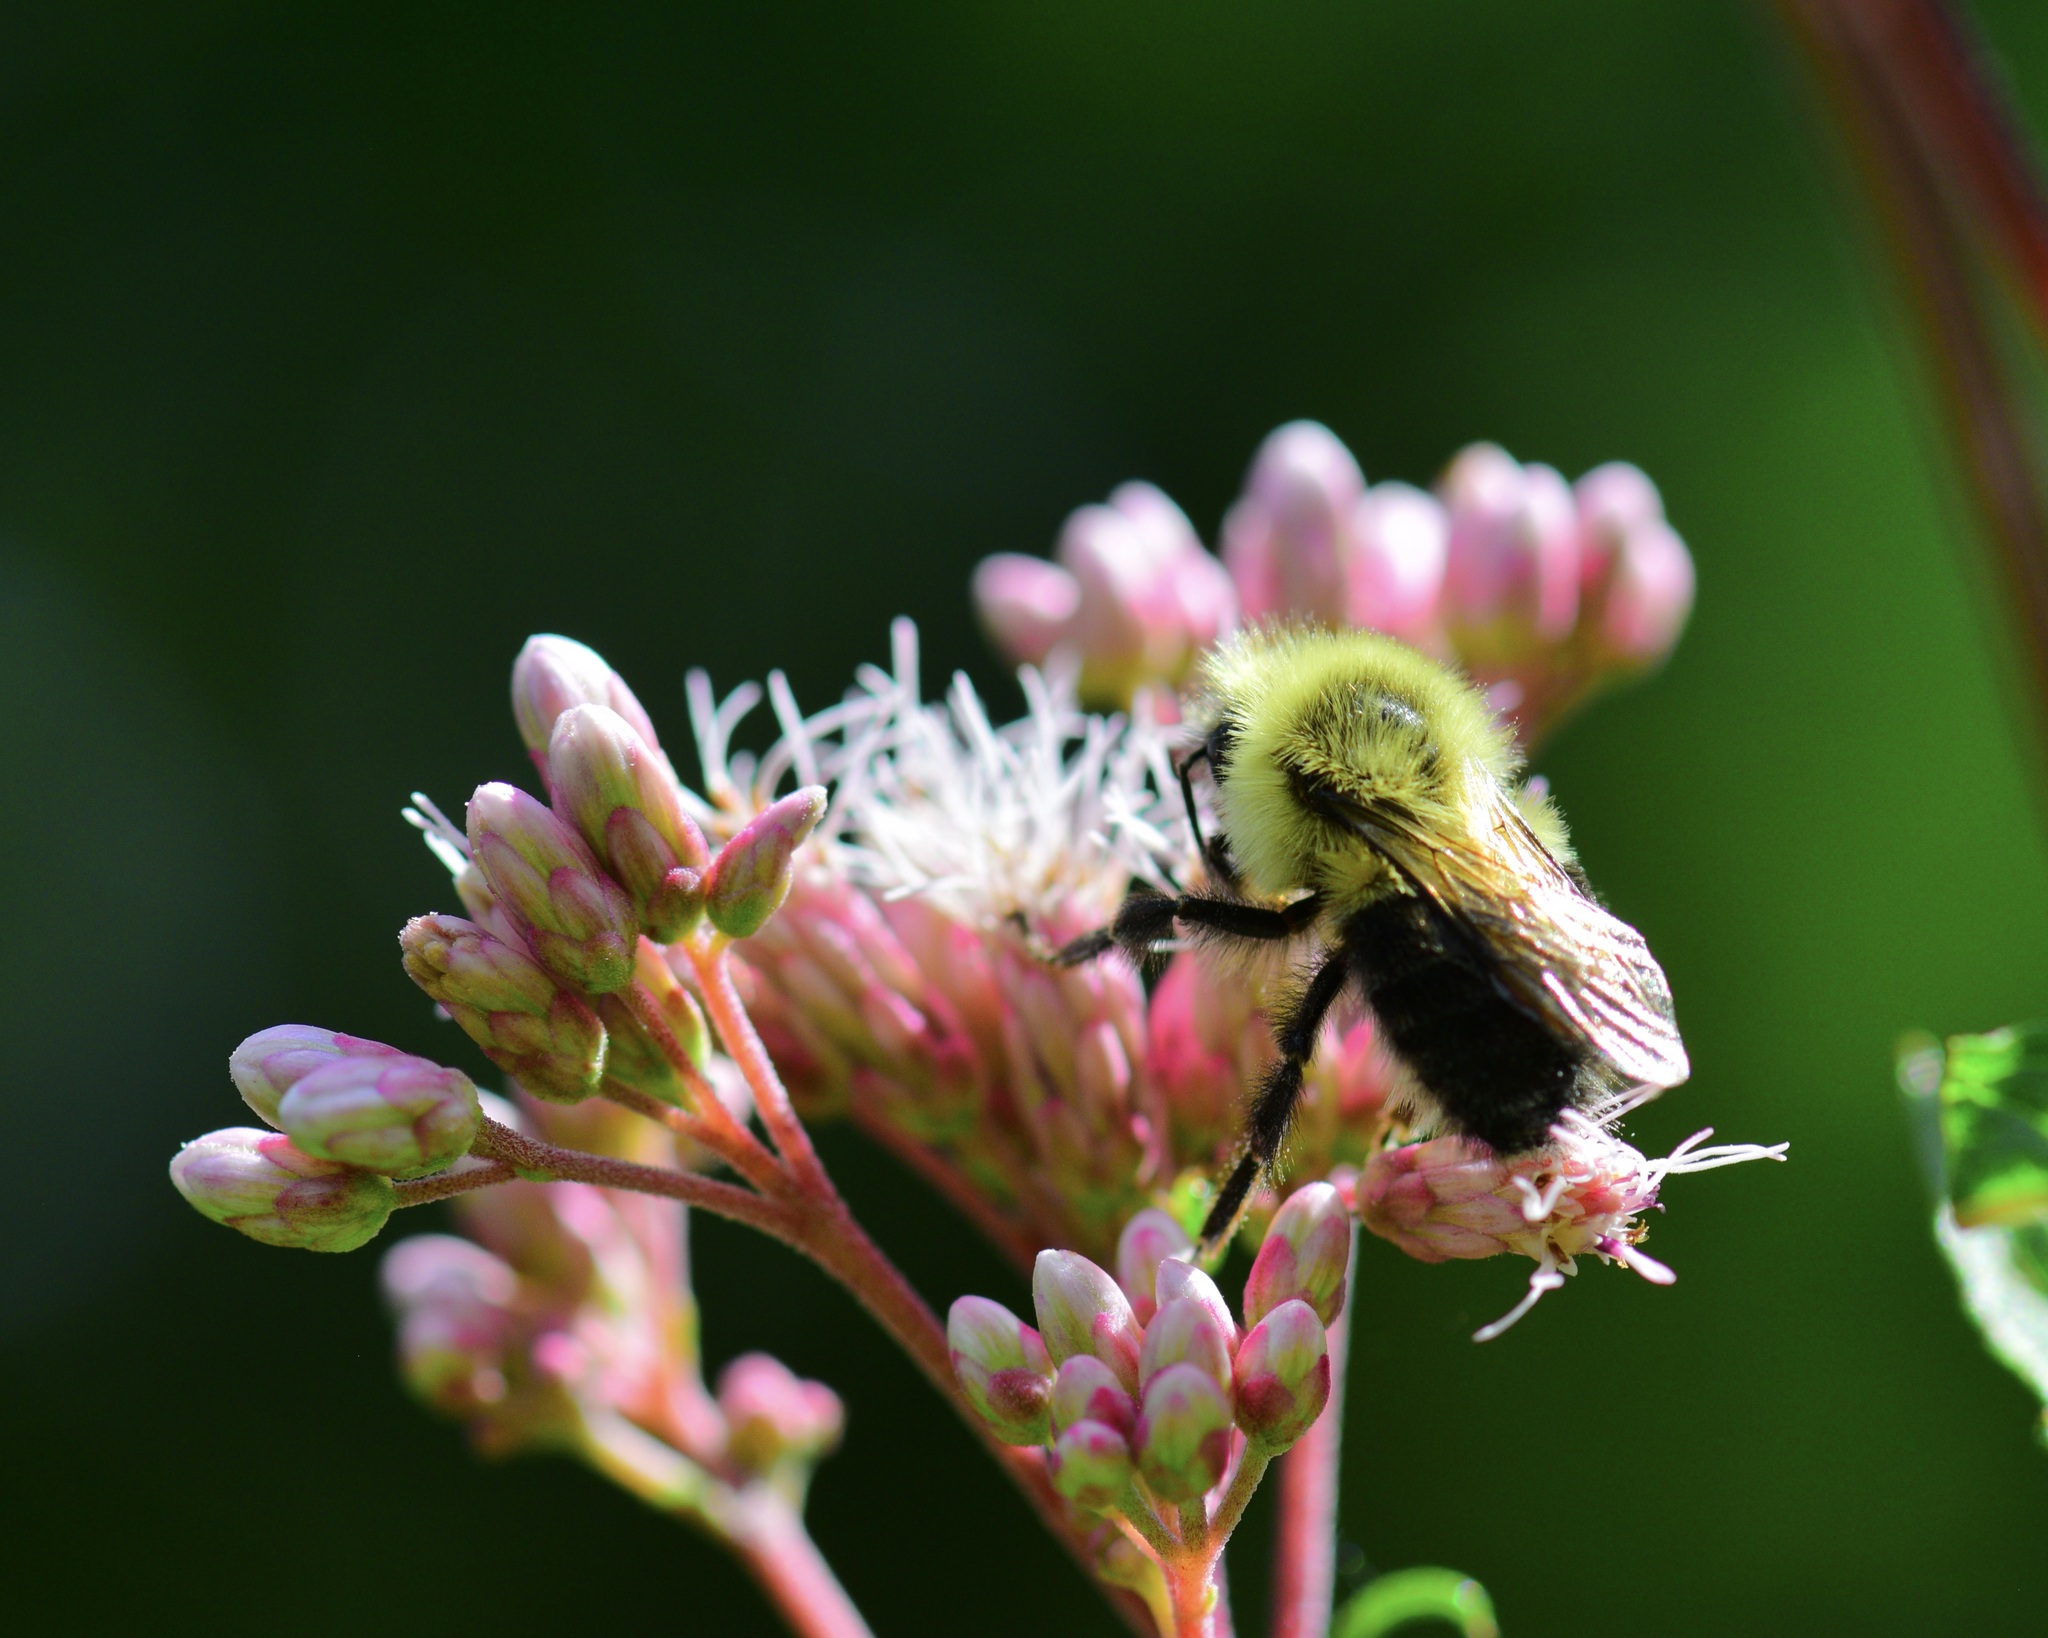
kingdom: Animalia
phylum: Arthropoda
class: Insecta
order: Hymenoptera
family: Apidae
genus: Pyrobombus
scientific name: Pyrobombus
